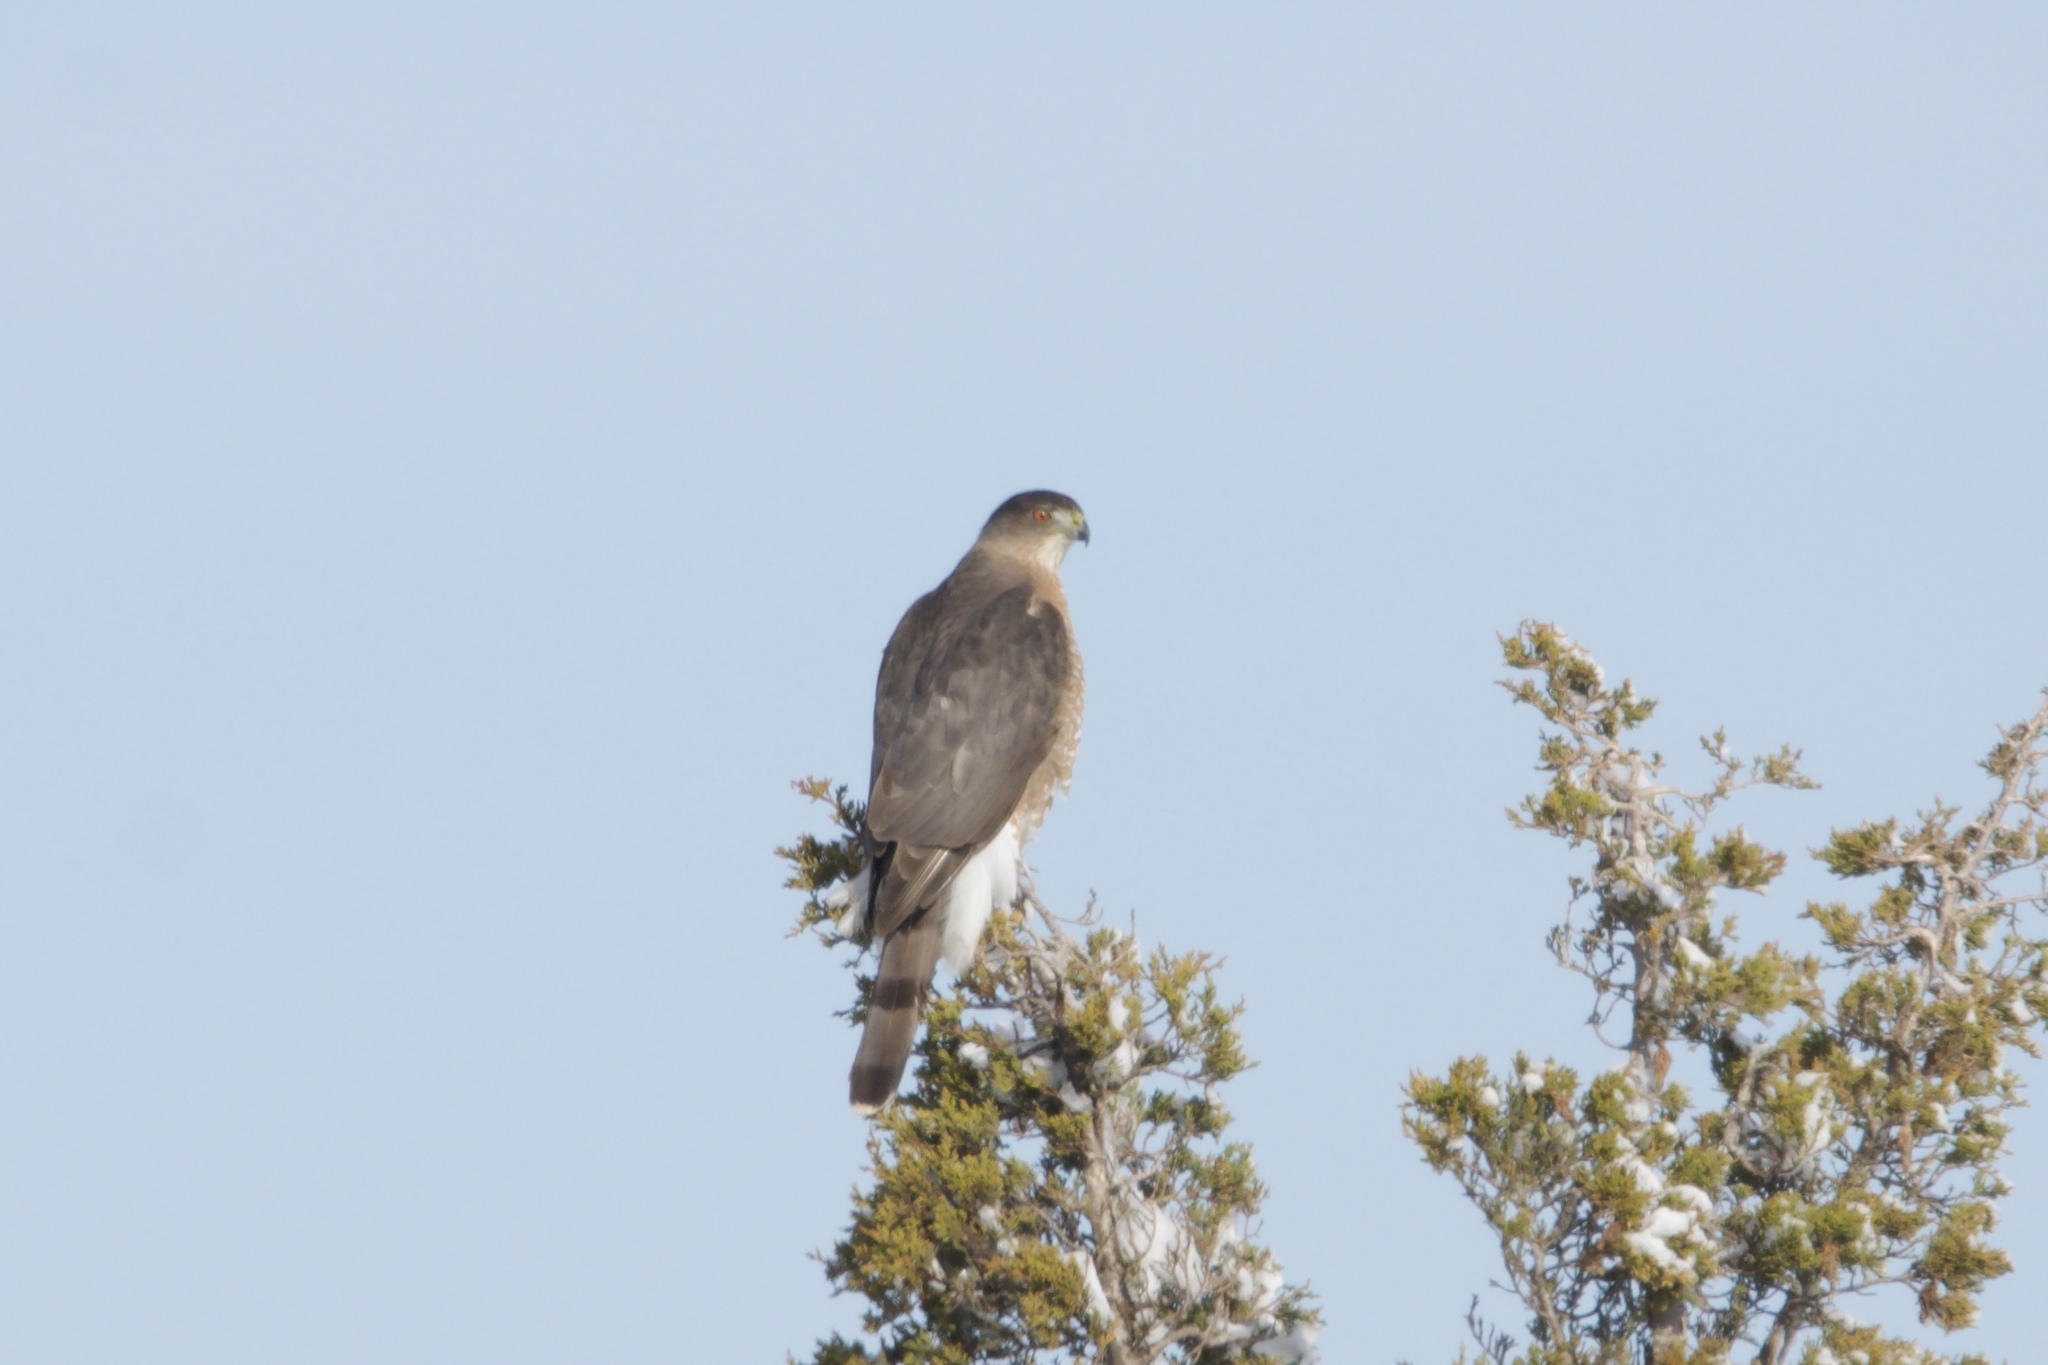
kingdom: Animalia
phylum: Chordata
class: Aves
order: Accipitriformes
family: Accipitridae
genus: Accipiter
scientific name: Accipiter cooperii
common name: Cooper's hawk
